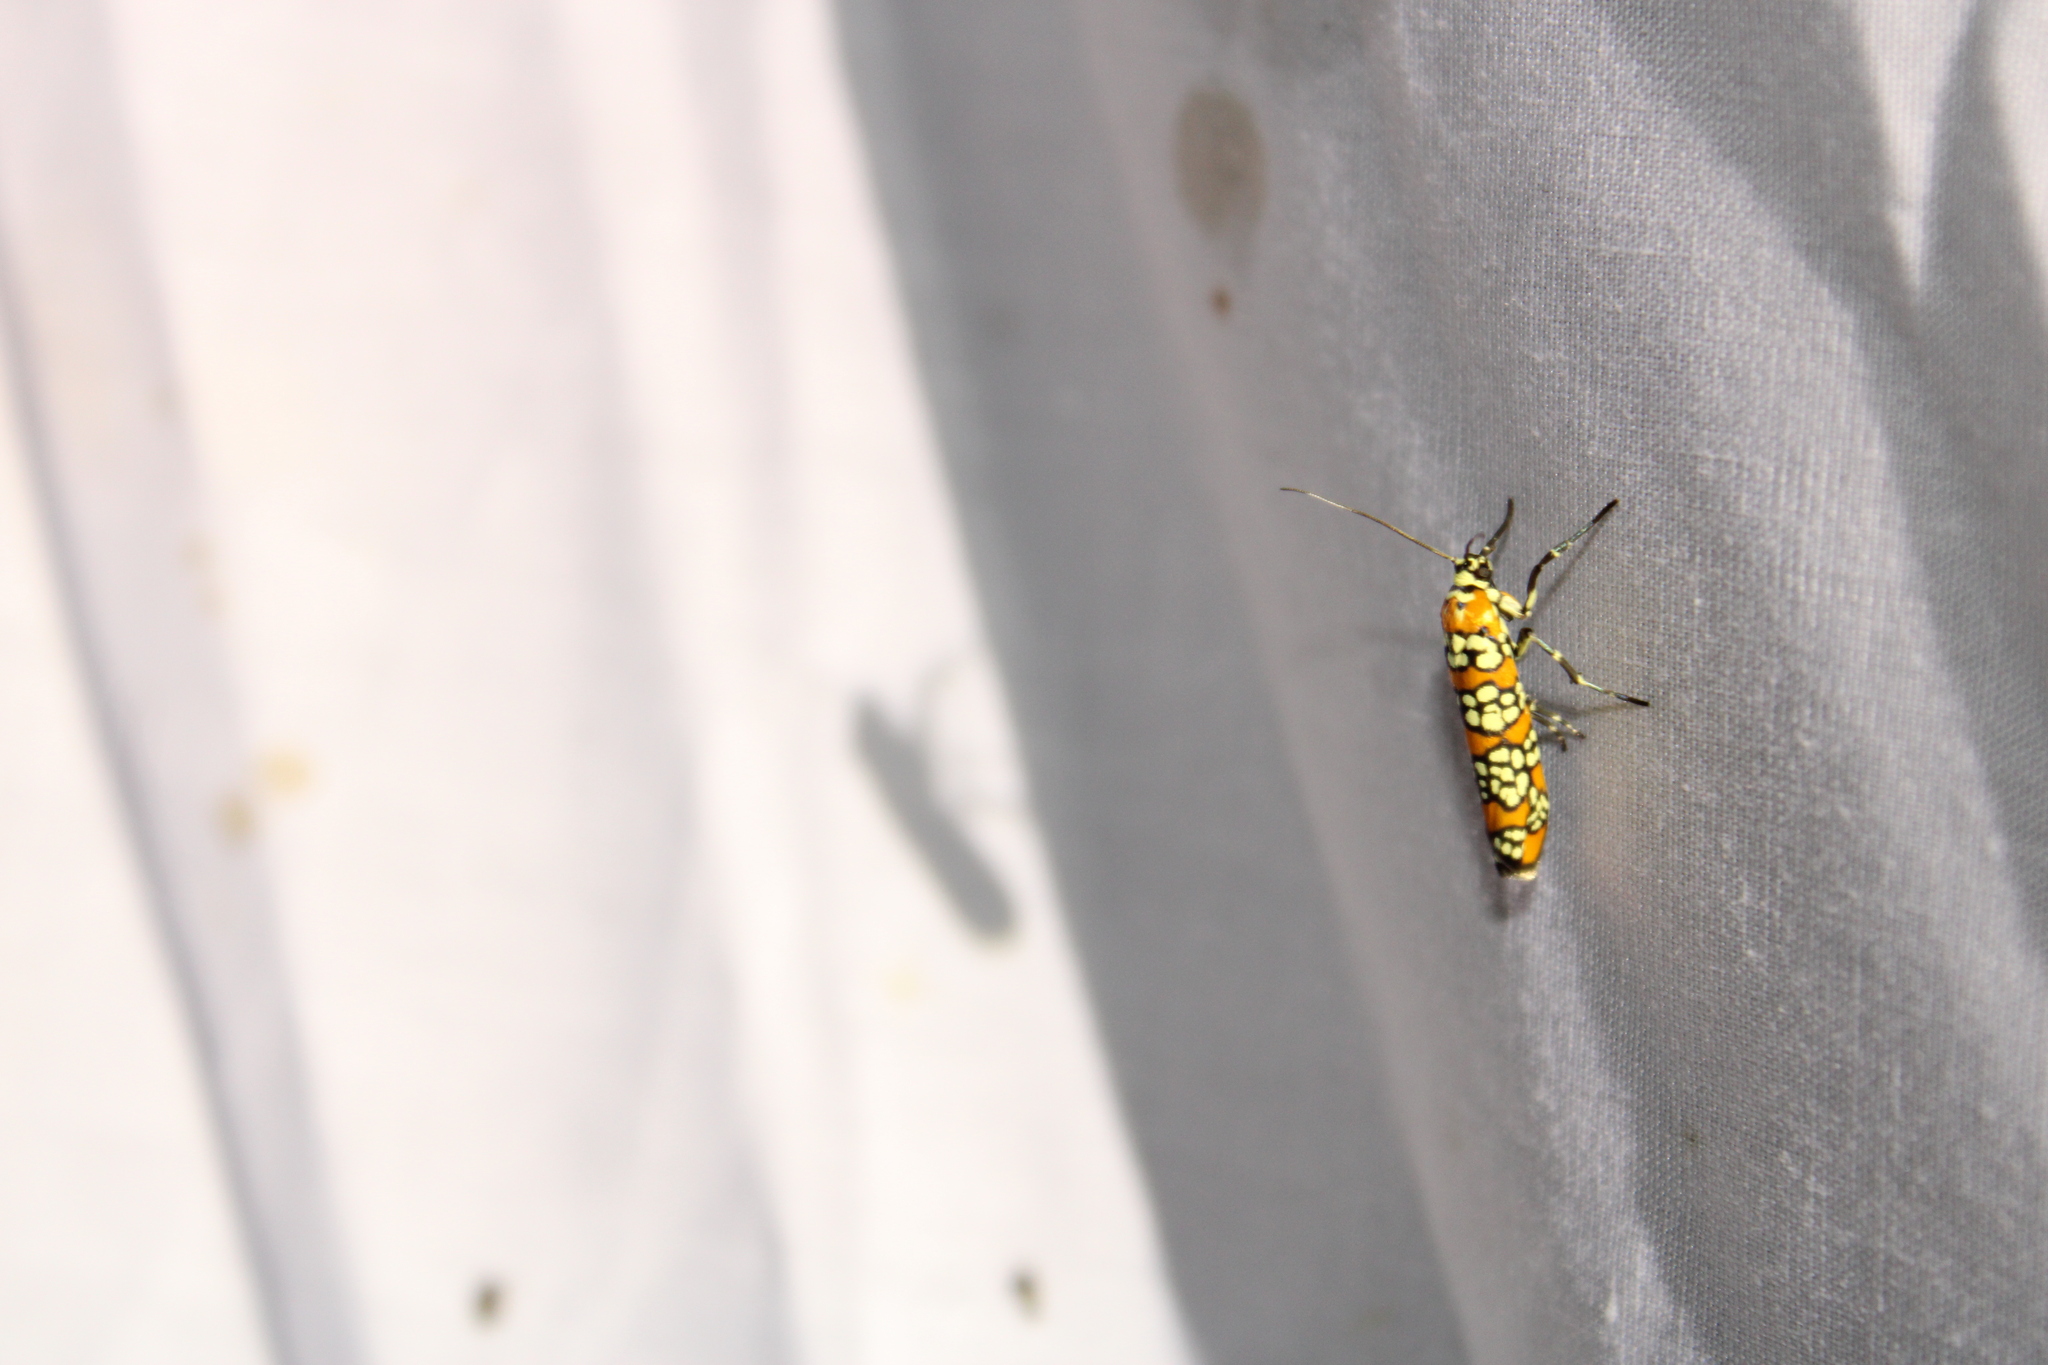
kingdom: Animalia
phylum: Arthropoda
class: Insecta
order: Lepidoptera
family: Attevidae
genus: Atteva
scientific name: Atteva punctella
